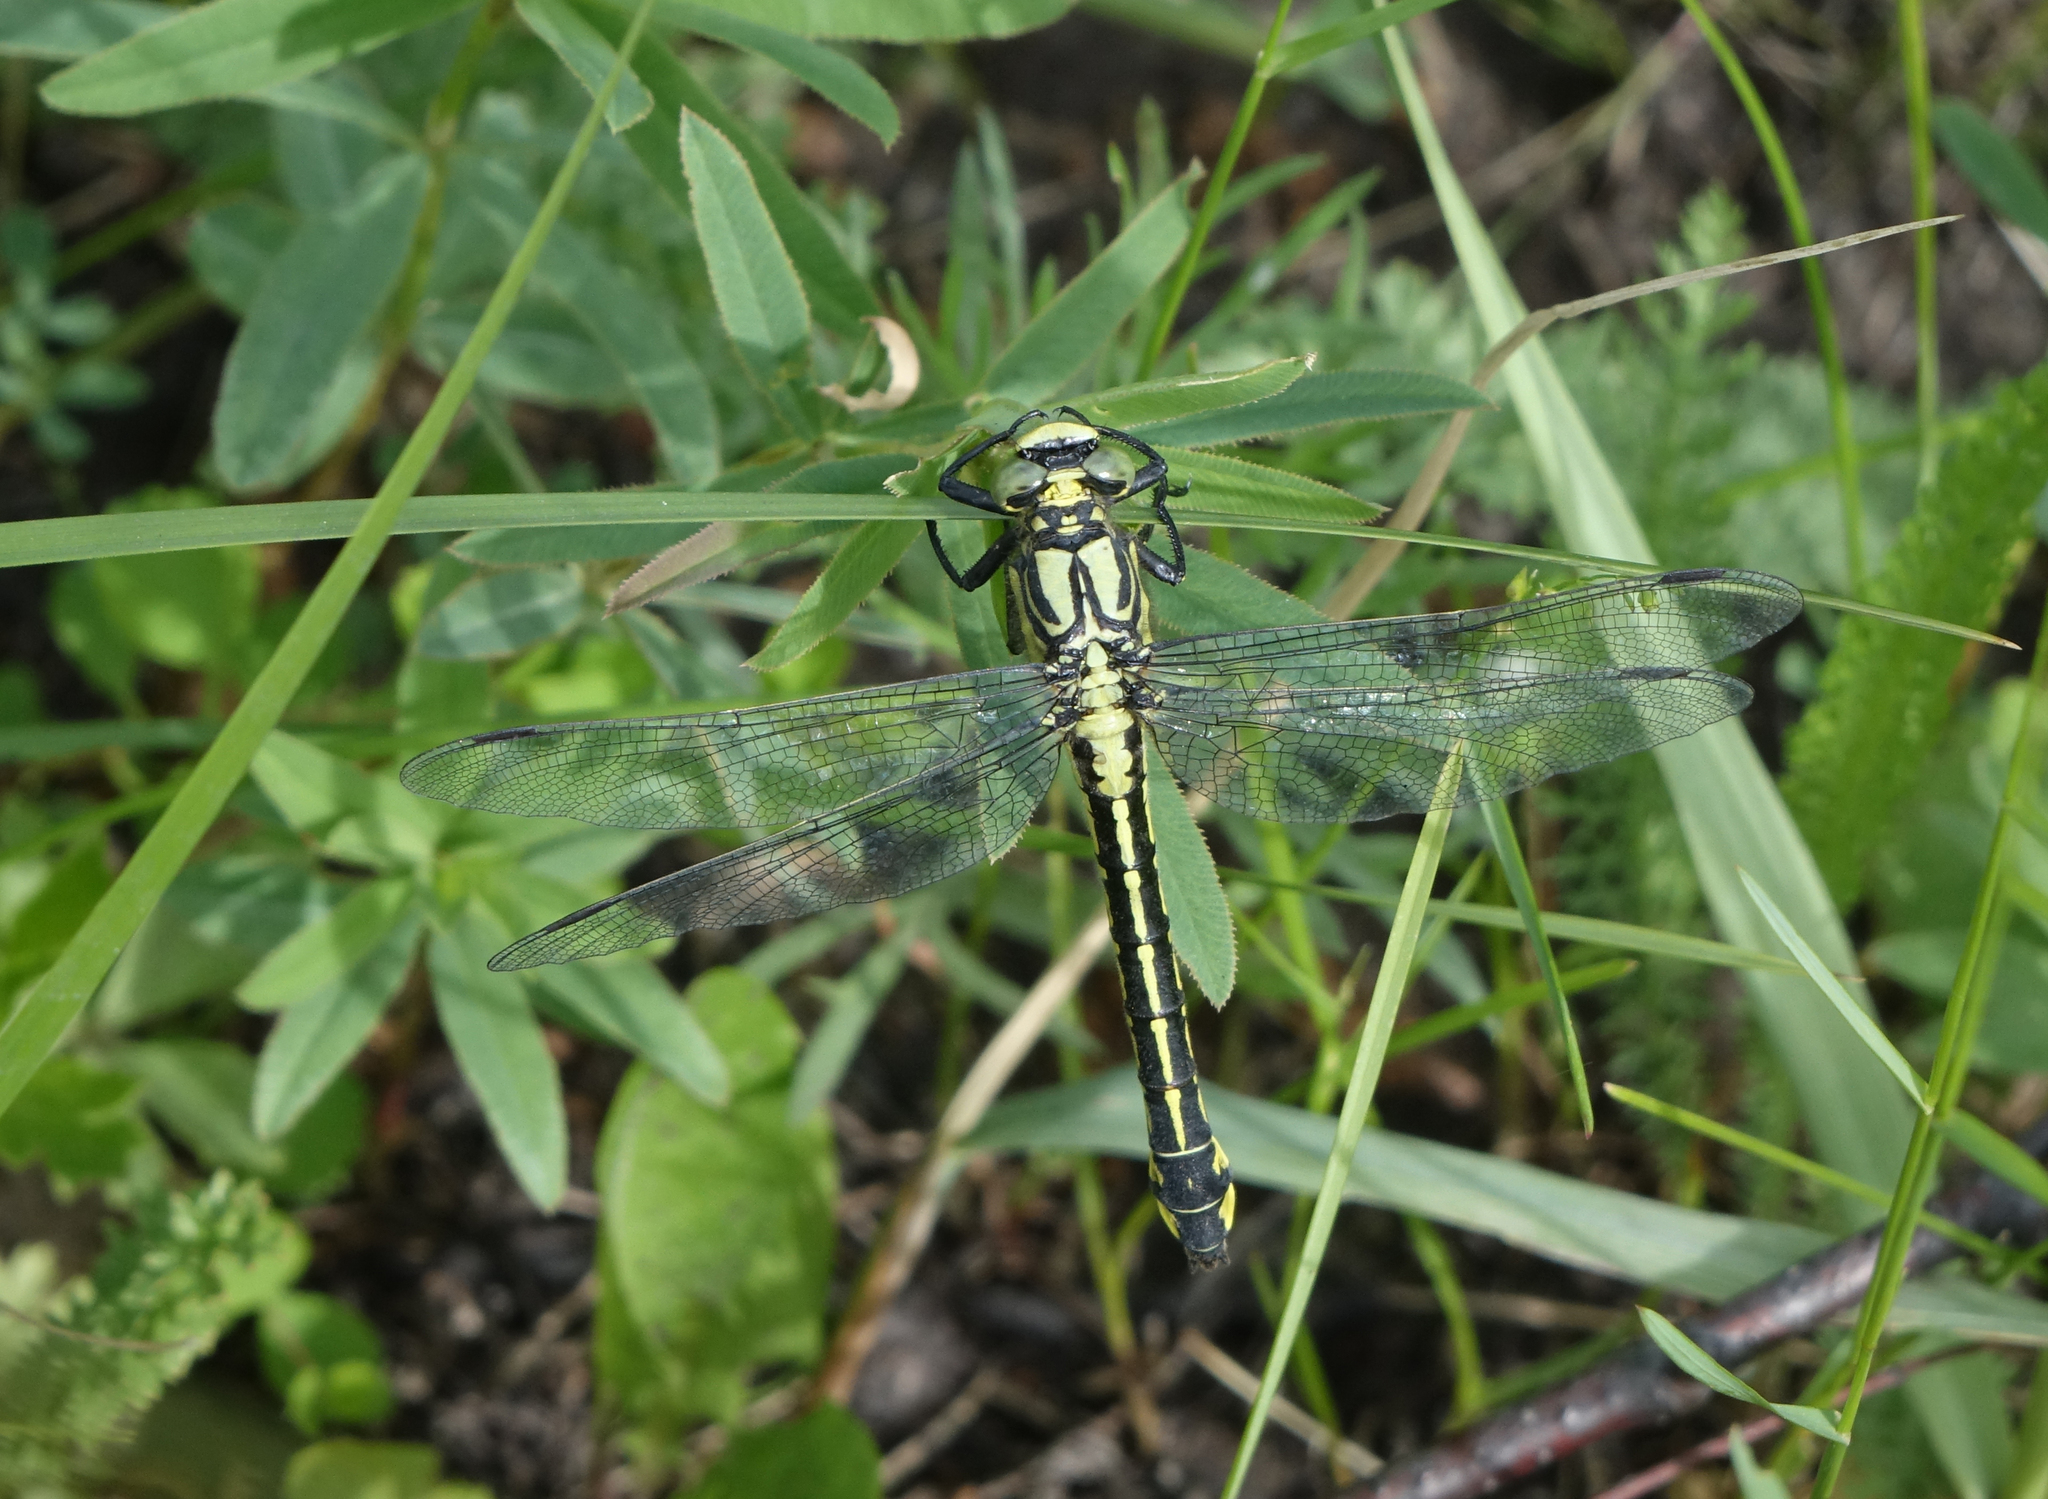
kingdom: Animalia
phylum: Arthropoda
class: Insecta
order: Odonata
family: Gomphidae
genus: Gomphus
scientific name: Gomphus vulgatissimus
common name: Club-tailed dragonfly
